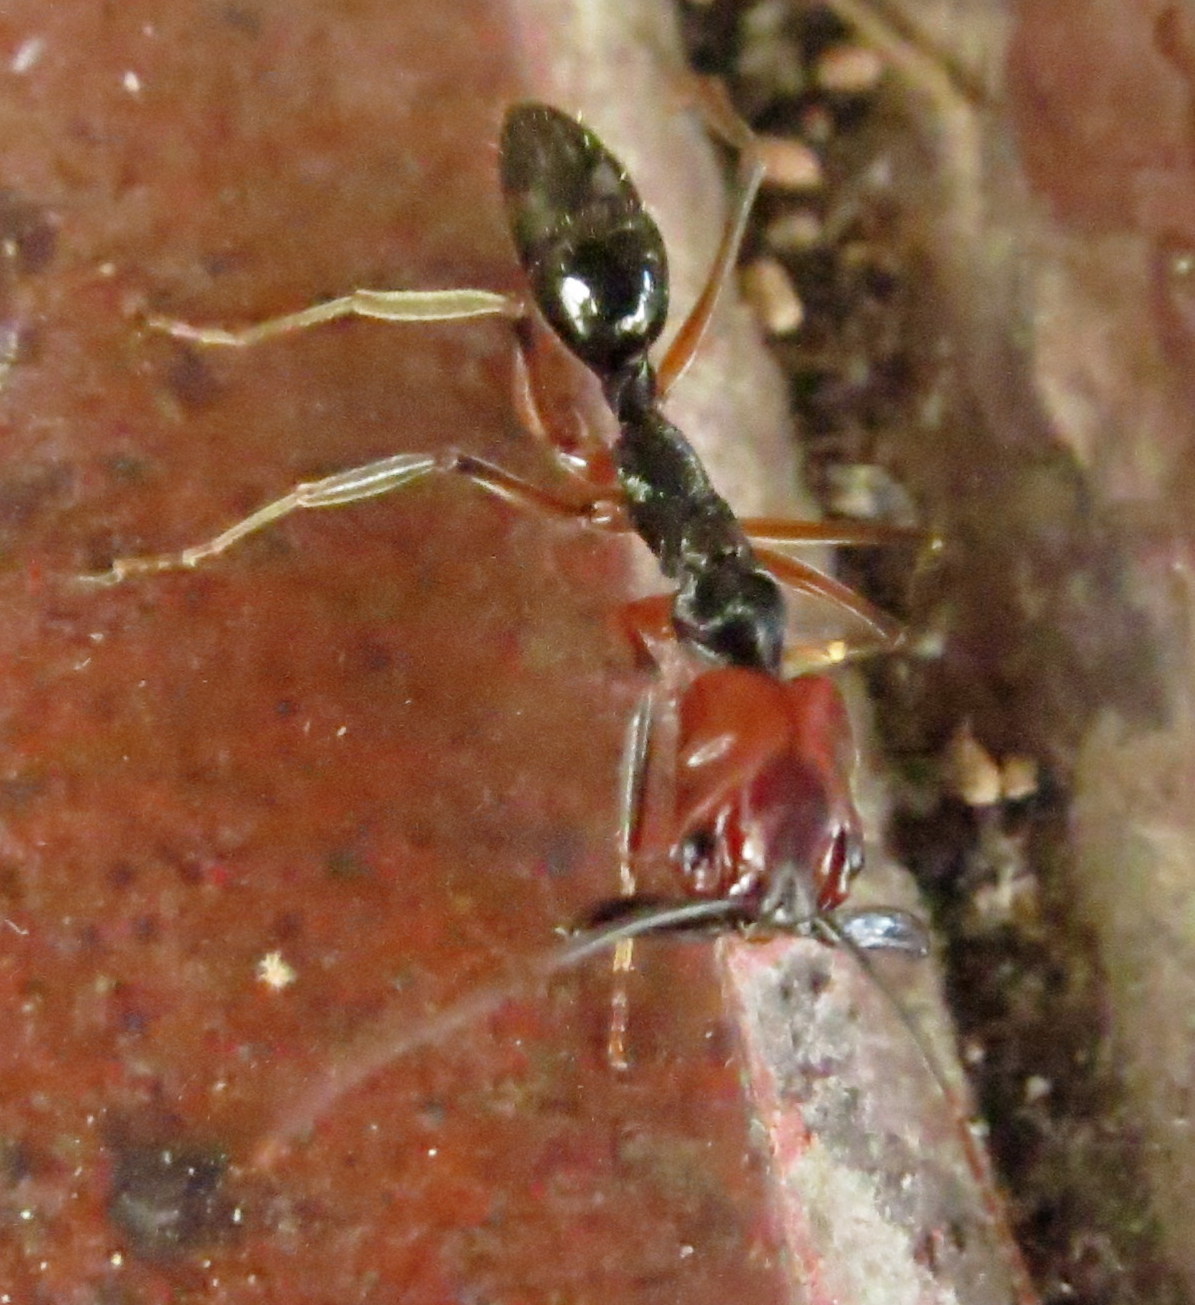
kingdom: Animalia
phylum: Arthropoda
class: Insecta
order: Hymenoptera
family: Formicidae
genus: Odontomachus
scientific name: Odontomachus erythrocephalus
